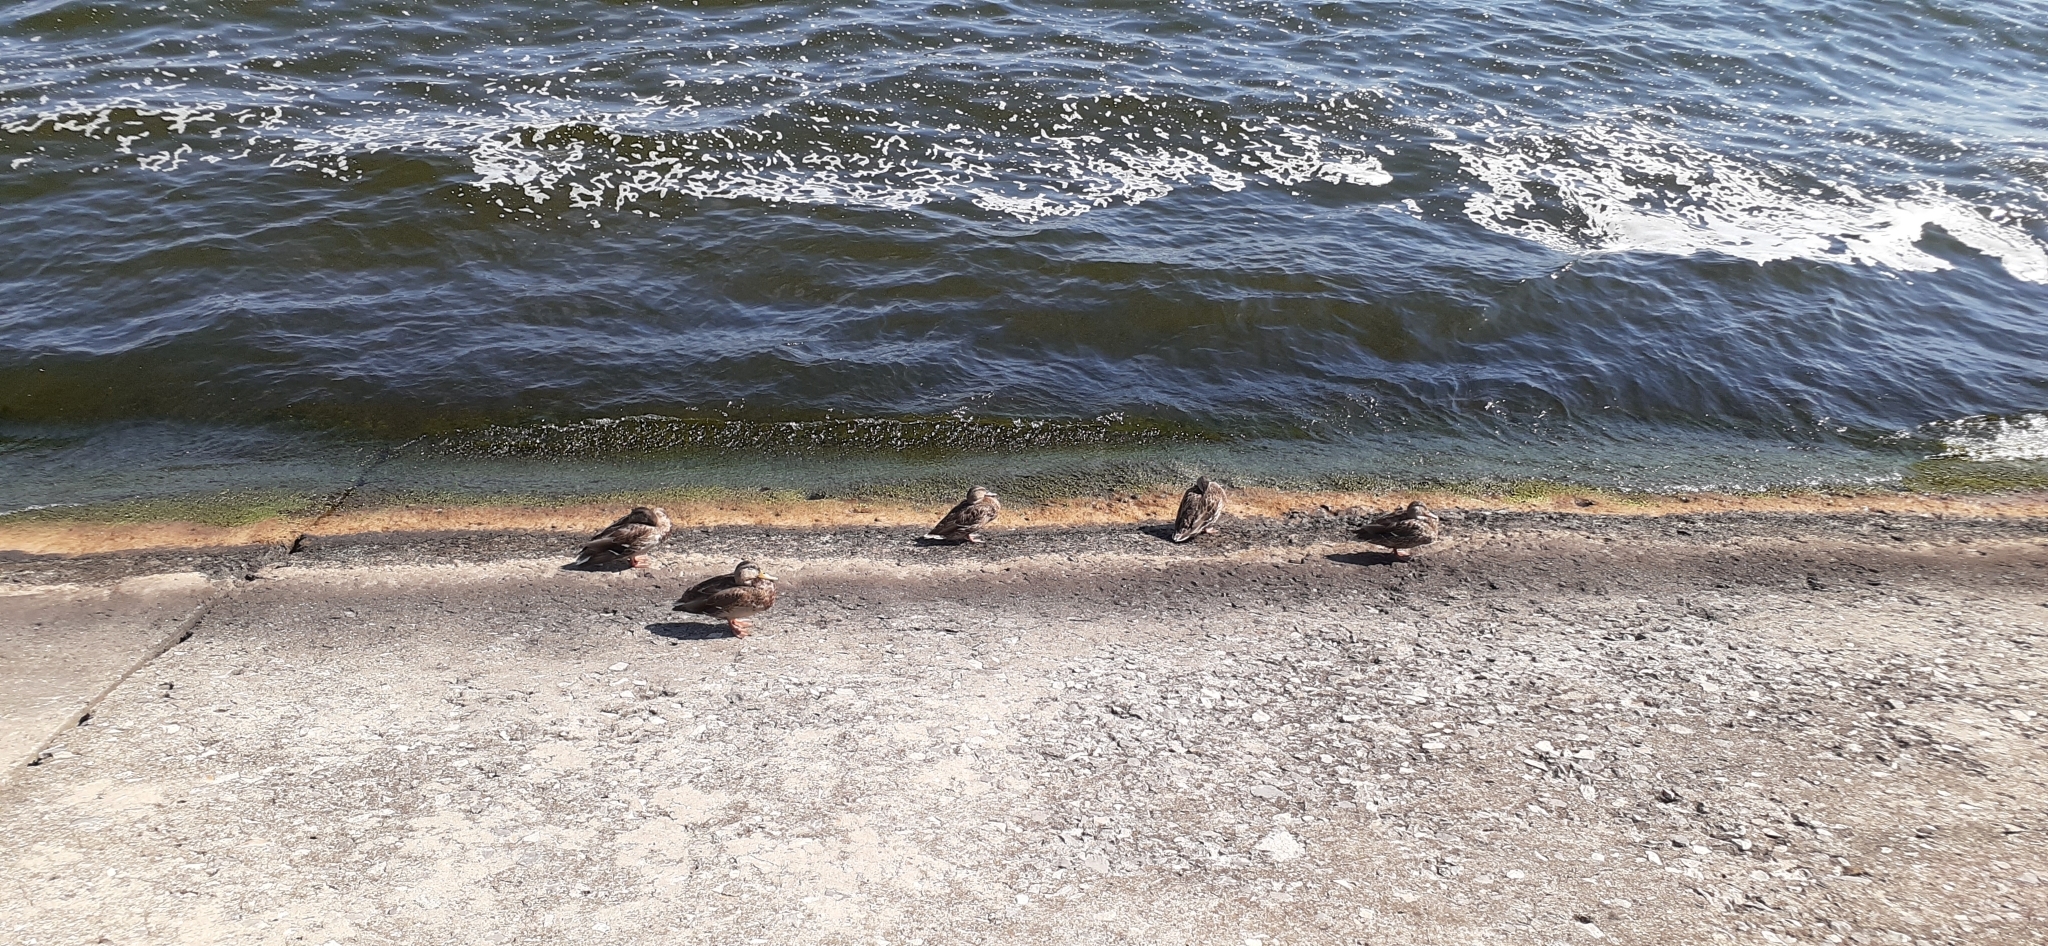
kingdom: Animalia
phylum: Chordata
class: Aves
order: Anseriformes
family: Anatidae
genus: Anas
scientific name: Anas platyrhynchos
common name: Mallard
